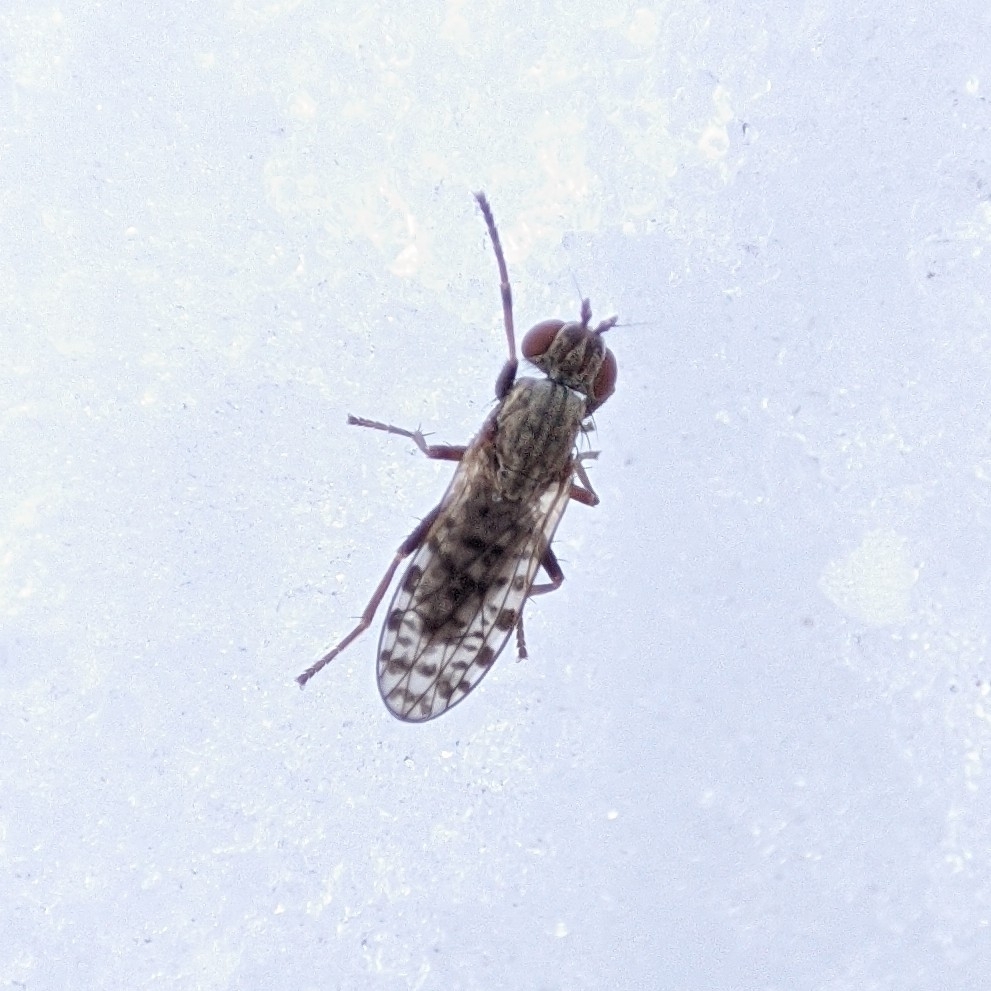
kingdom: Animalia
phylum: Arthropoda
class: Insecta
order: Diptera
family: Sciomyzidae
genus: Pherbellia
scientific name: Pherbellia schoenherri
